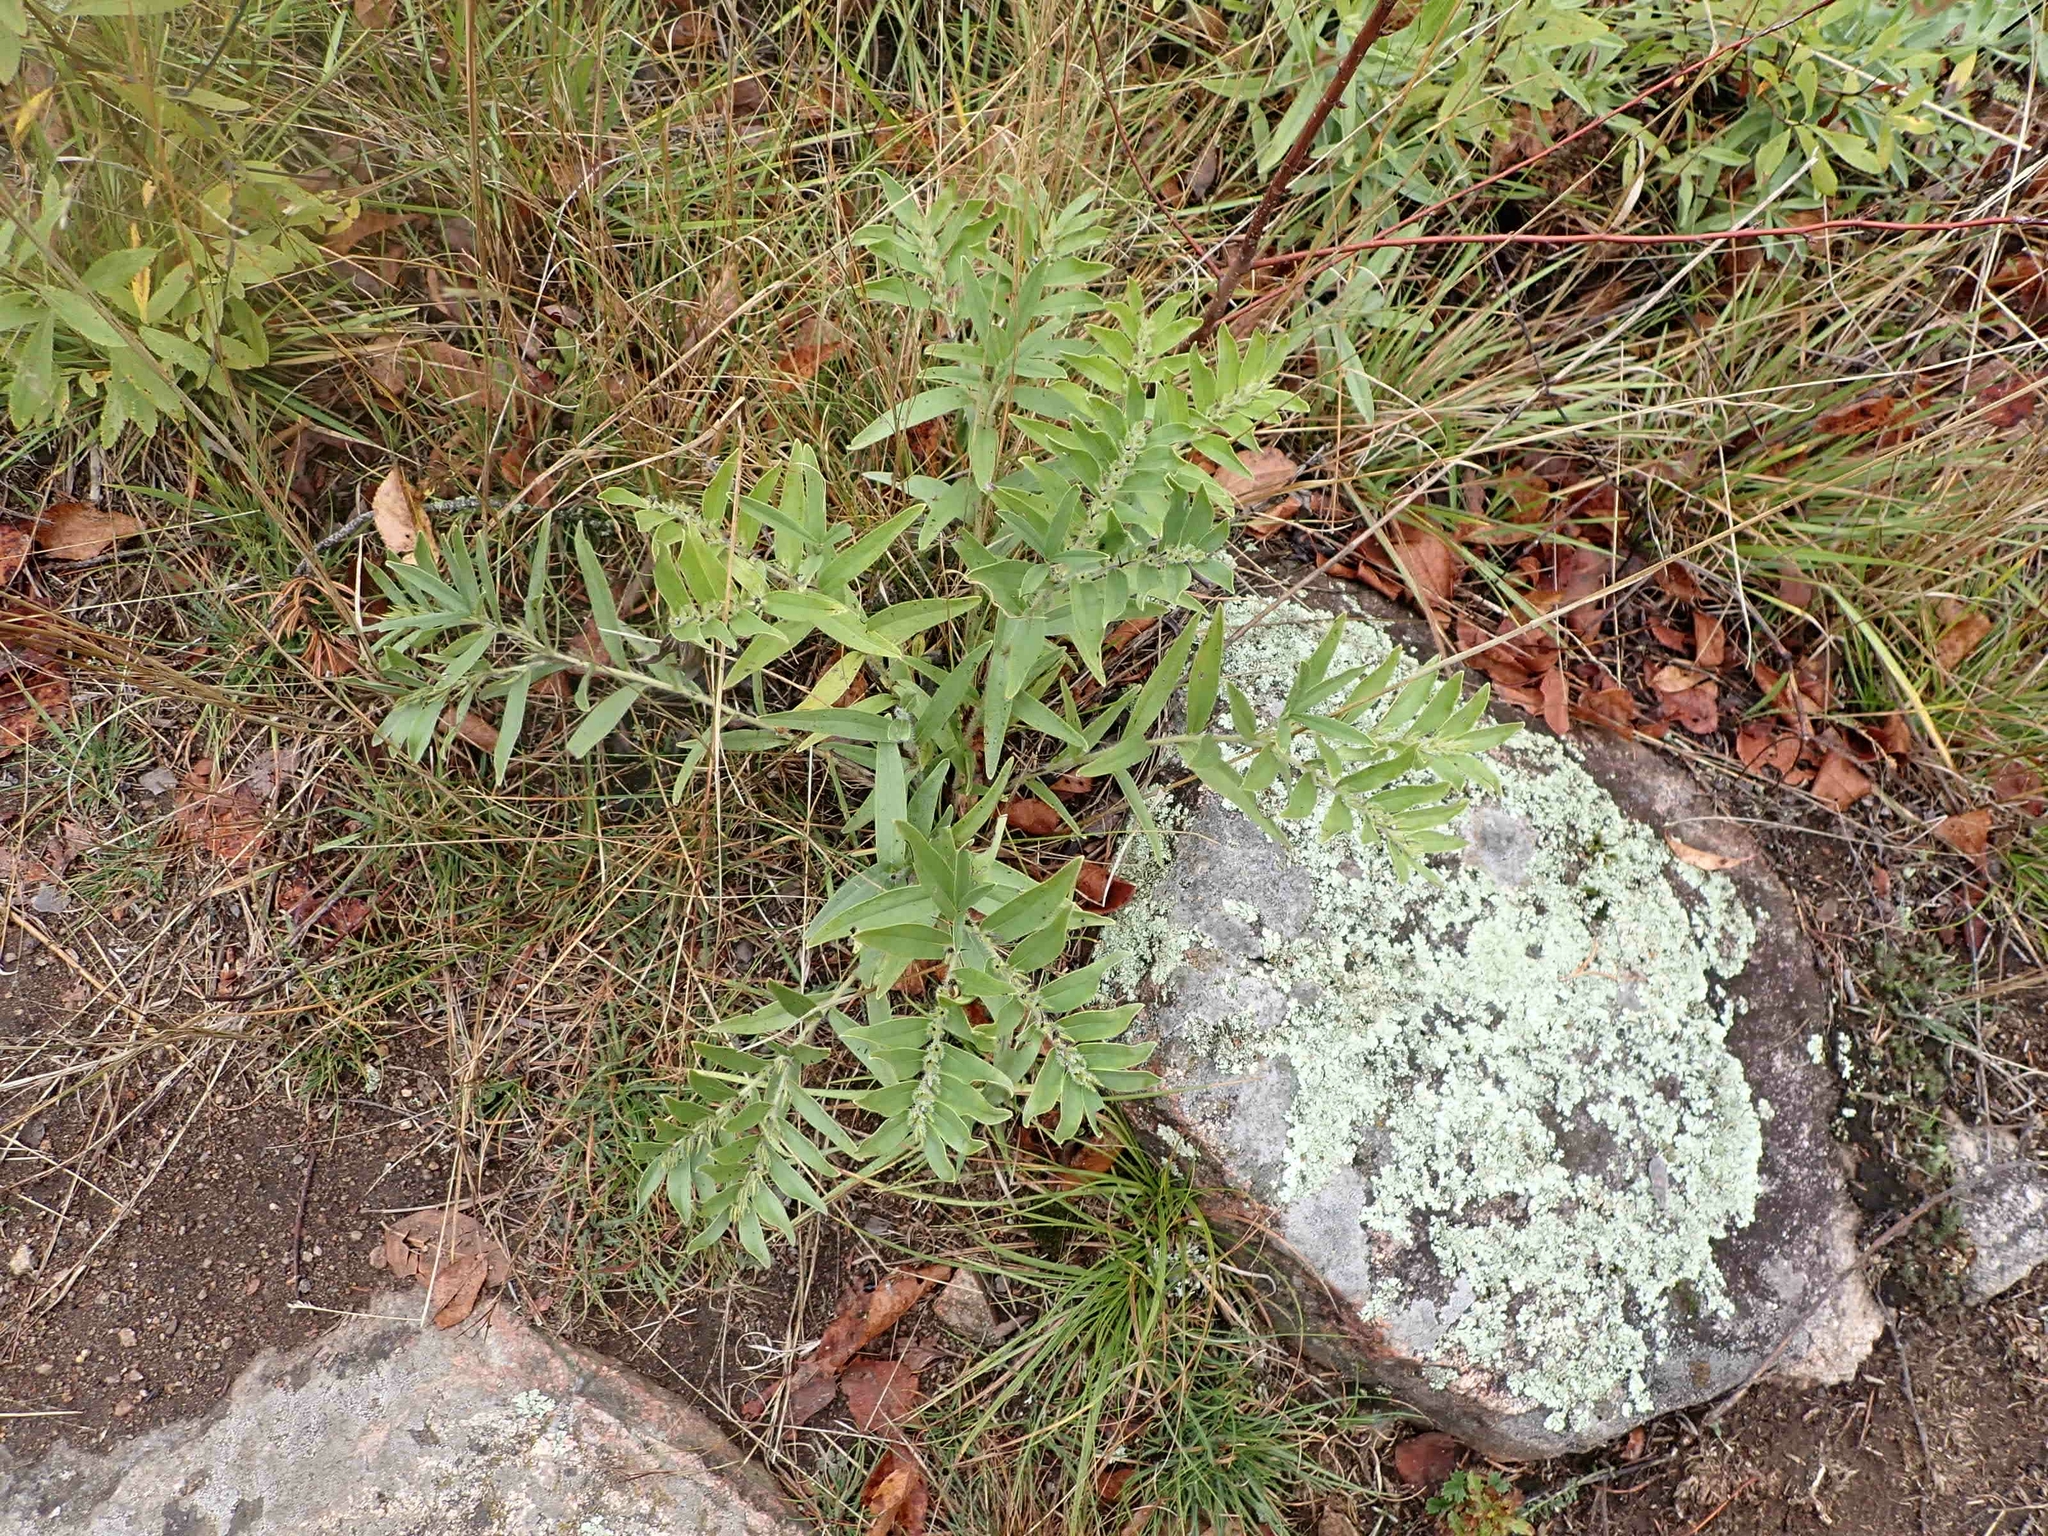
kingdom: Plantae
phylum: Tracheophyta
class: Magnoliopsida
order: Boraginales
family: Boraginaceae
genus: Lithospermum
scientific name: Lithospermum canescens
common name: Hoary puccoon
